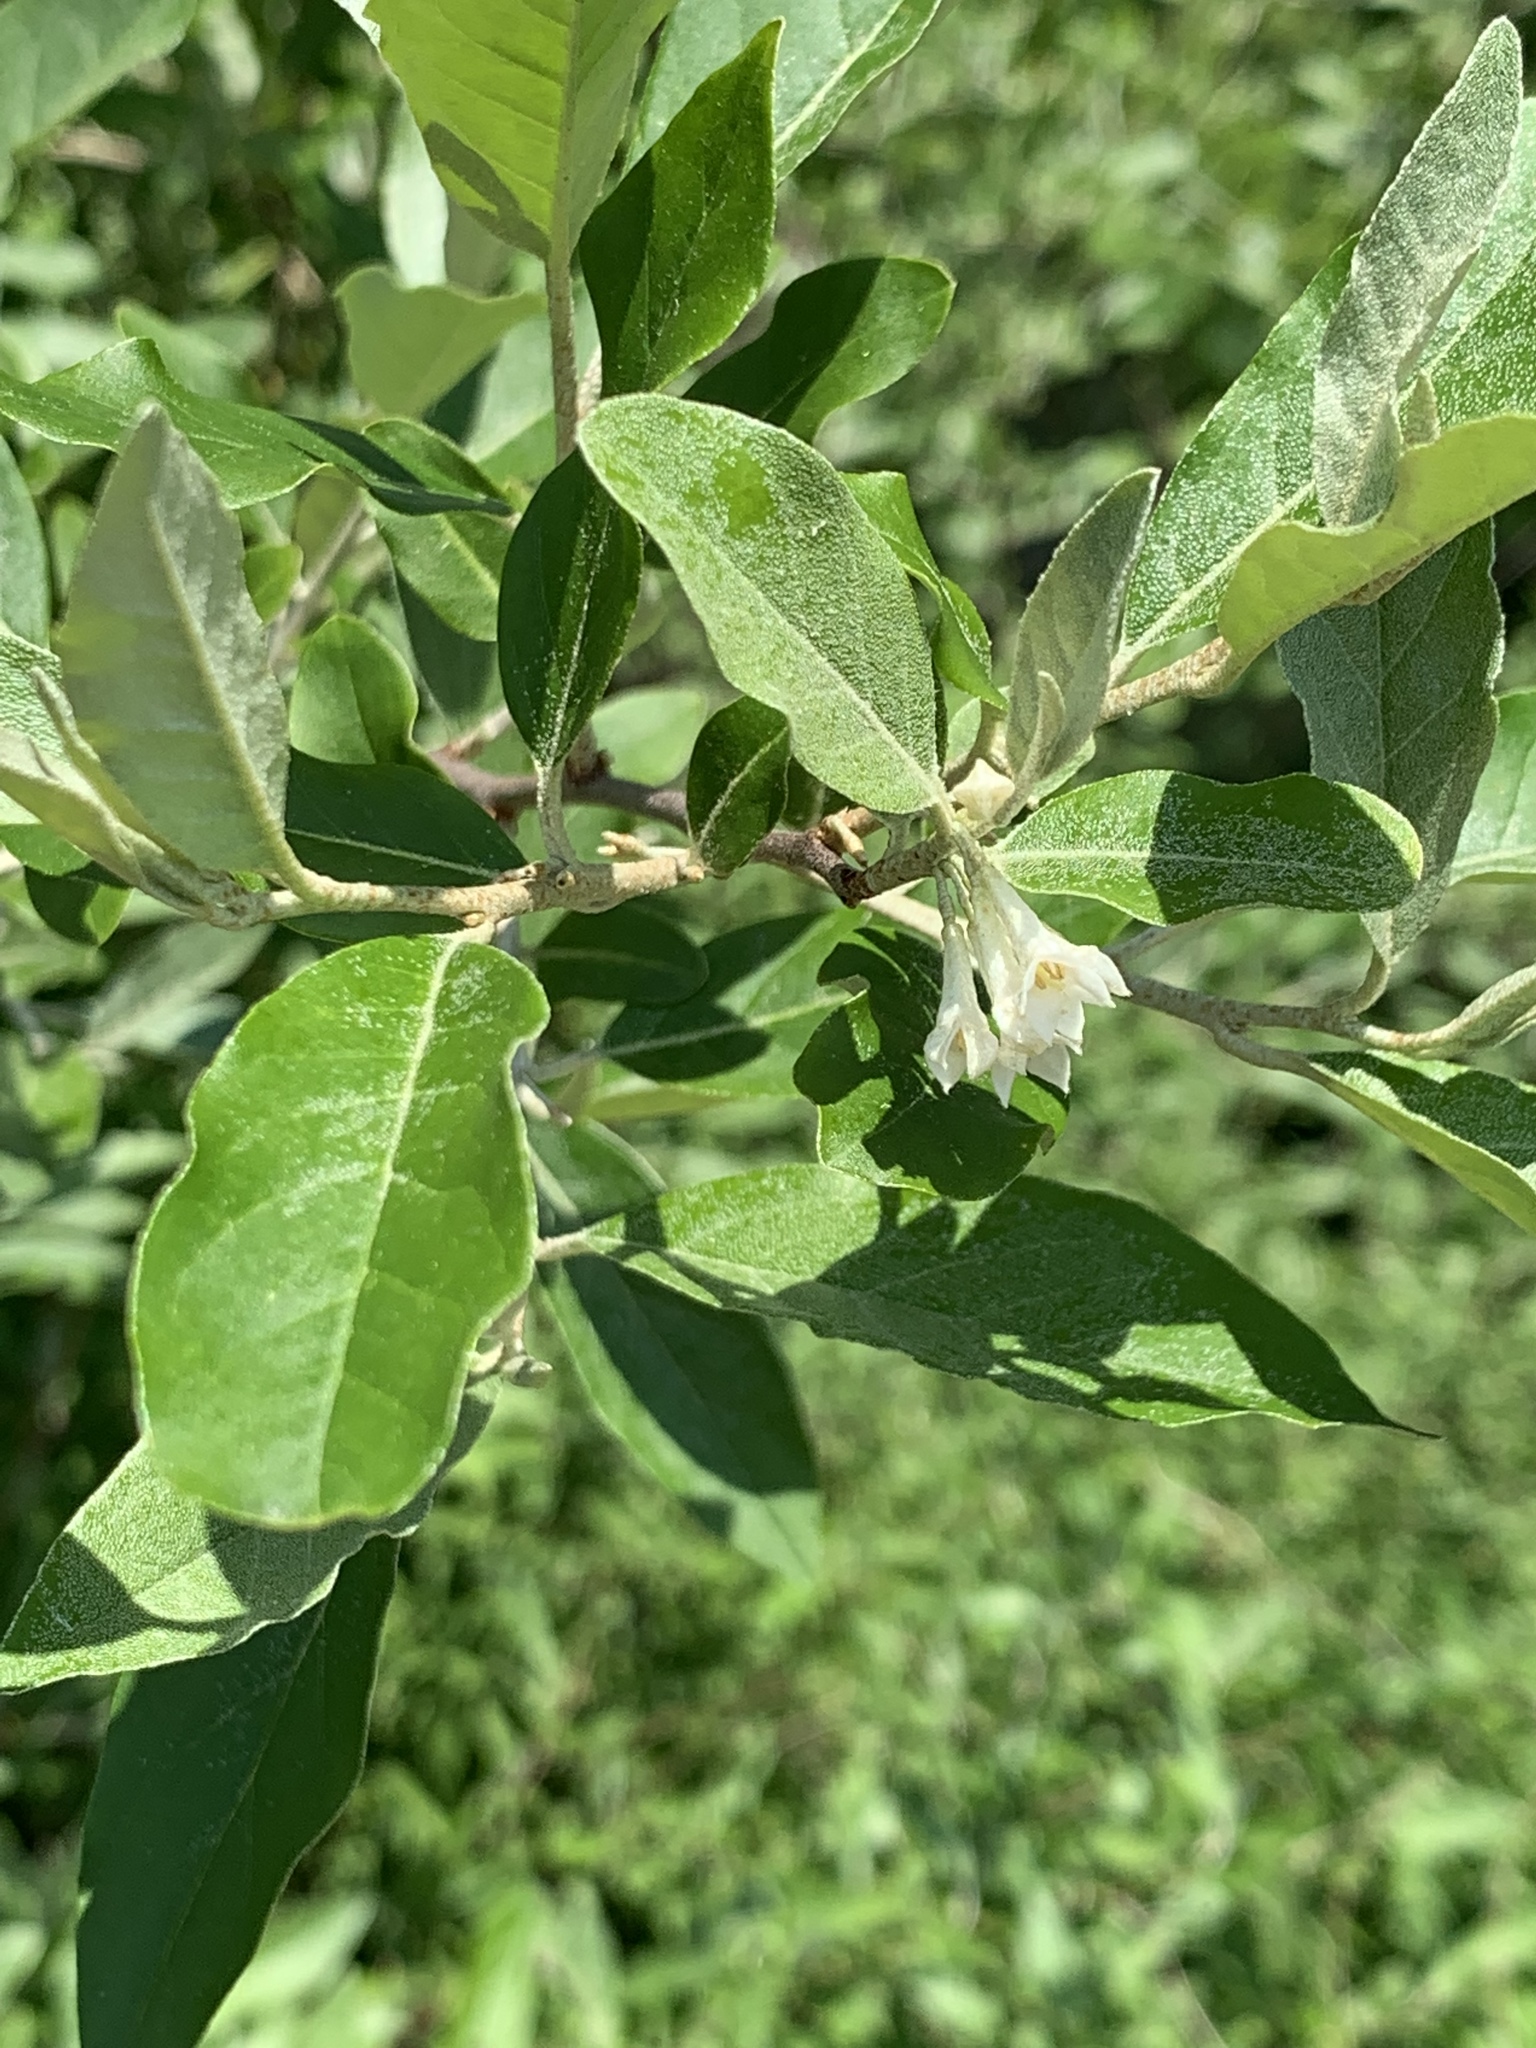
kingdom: Plantae
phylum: Tracheophyta
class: Magnoliopsida
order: Rosales
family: Elaeagnaceae
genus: Elaeagnus
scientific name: Elaeagnus umbellata
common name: Autumn olive
